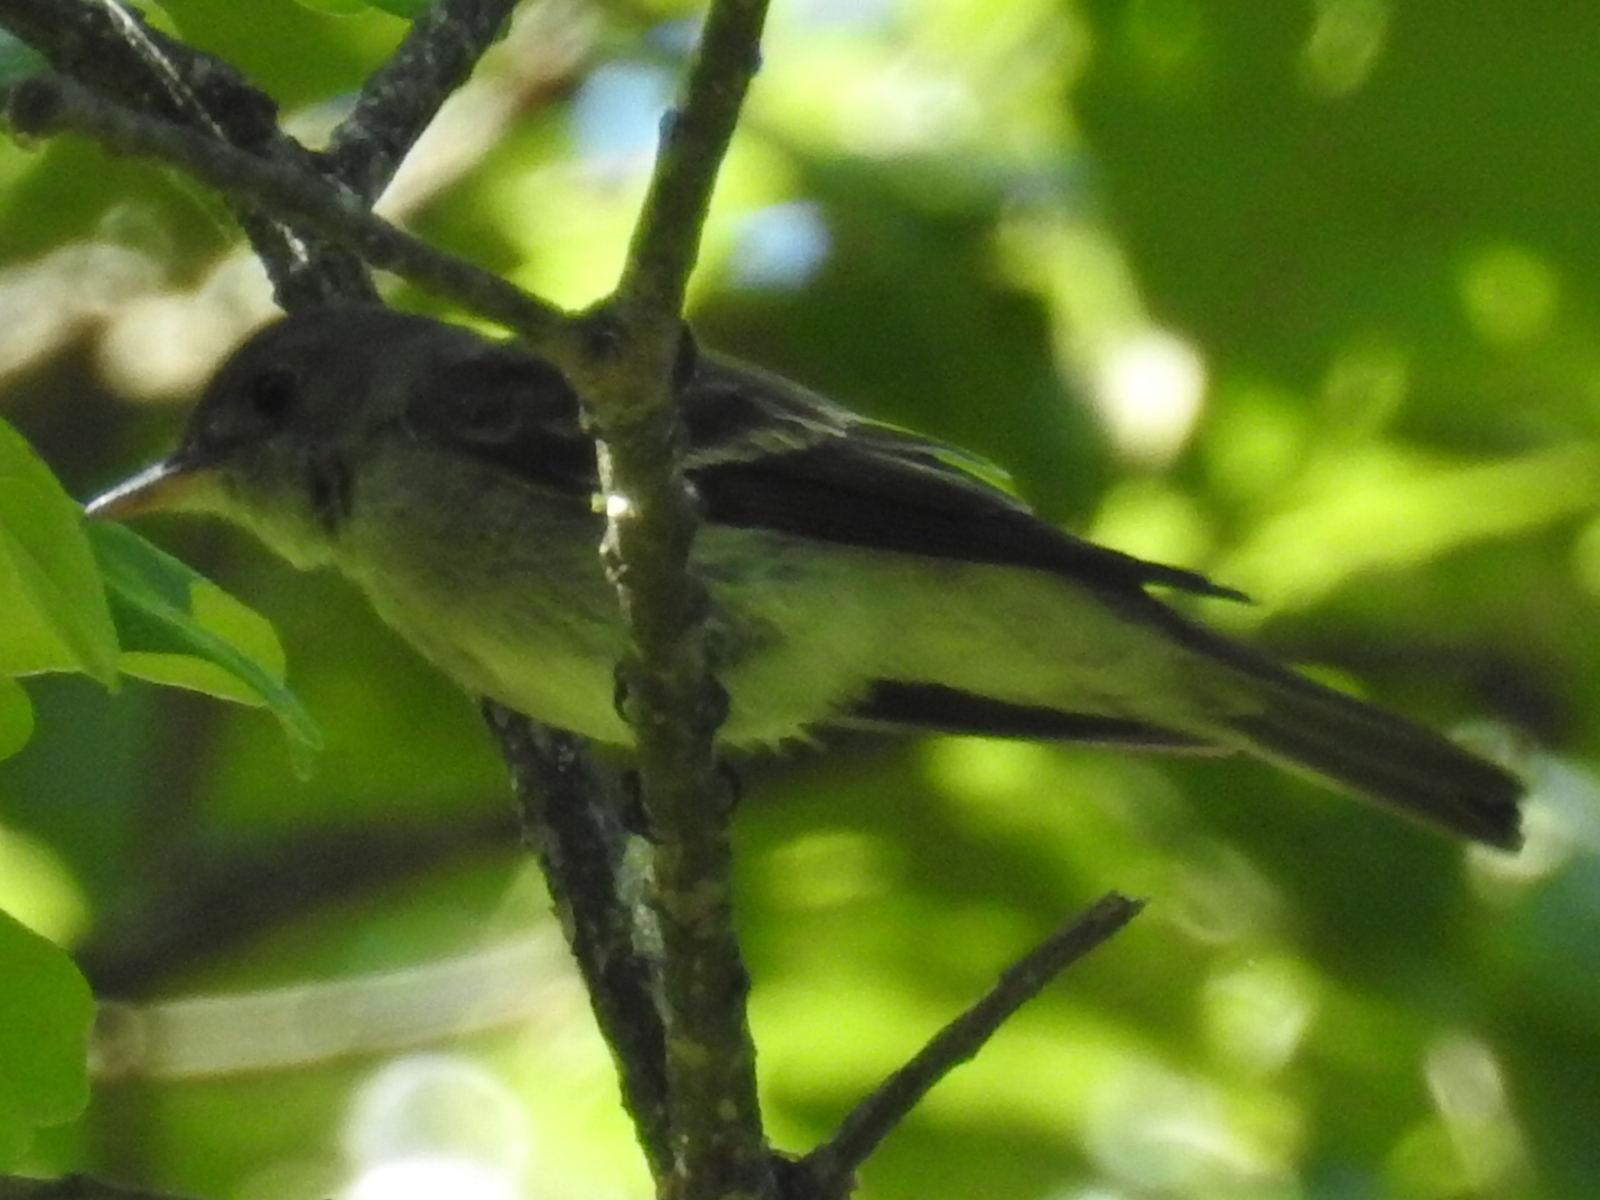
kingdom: Animalia
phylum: Chordata
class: Aves
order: Passeriformes
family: Tyrannidae
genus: Contopus
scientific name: Contopus virens
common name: Eastern wood-pewee
